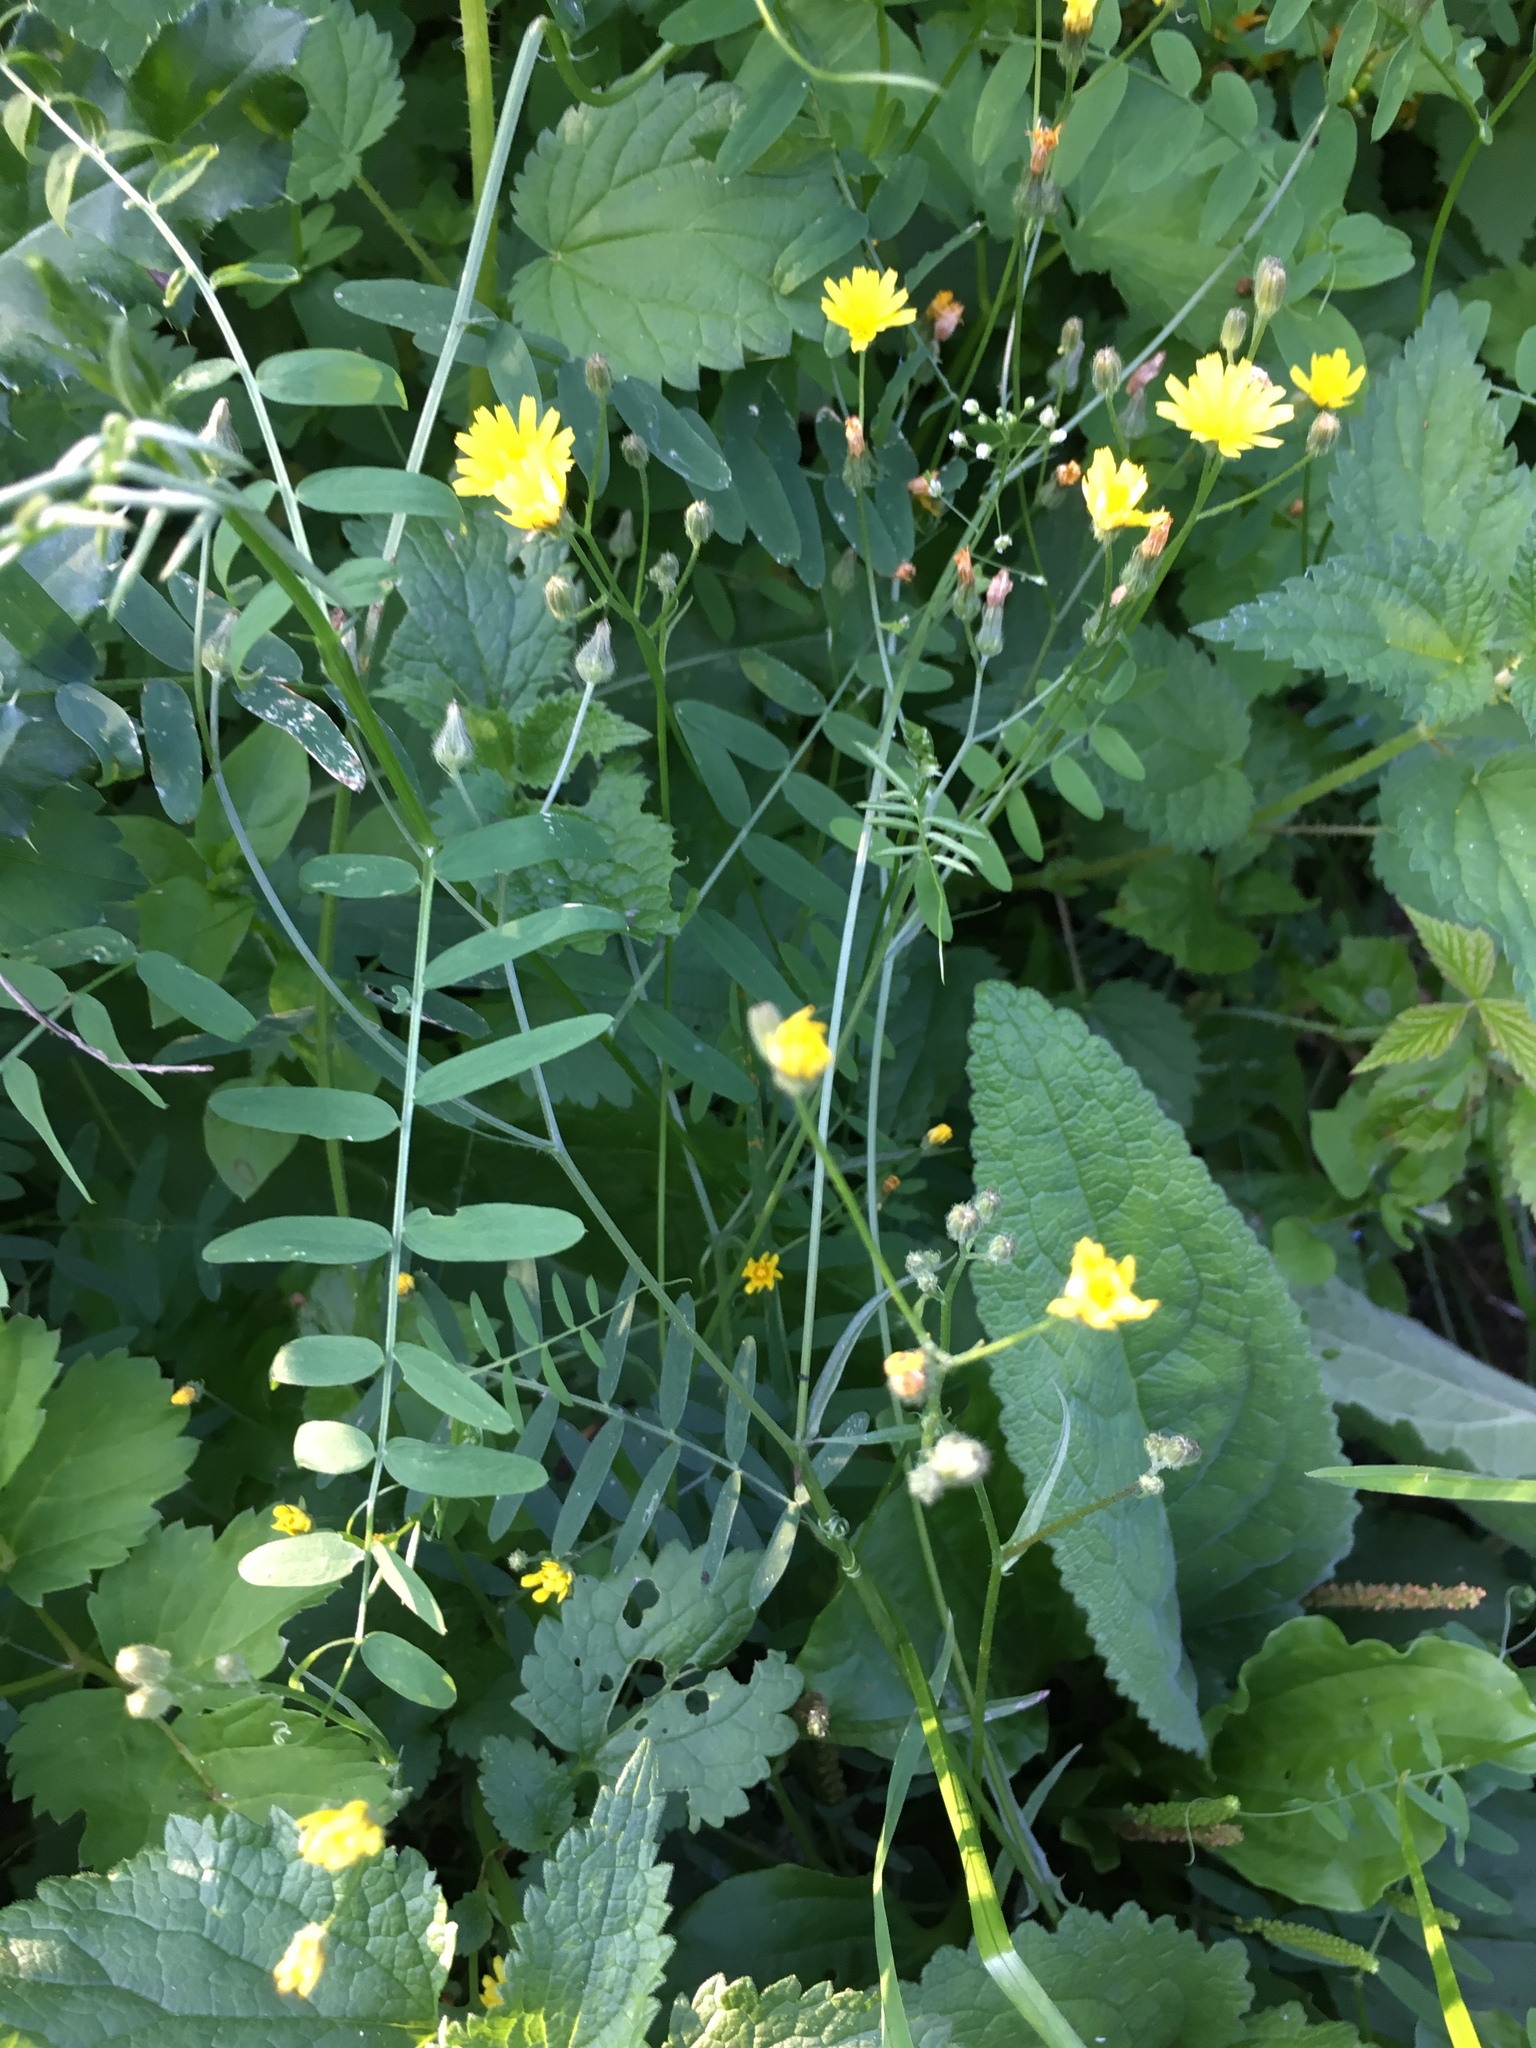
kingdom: Plantae
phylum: Tracheophyta
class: Magnoliopsida
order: Asterales
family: Asteraceae
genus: Lapsana
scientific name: Lapsana communis
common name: Nipplewort
